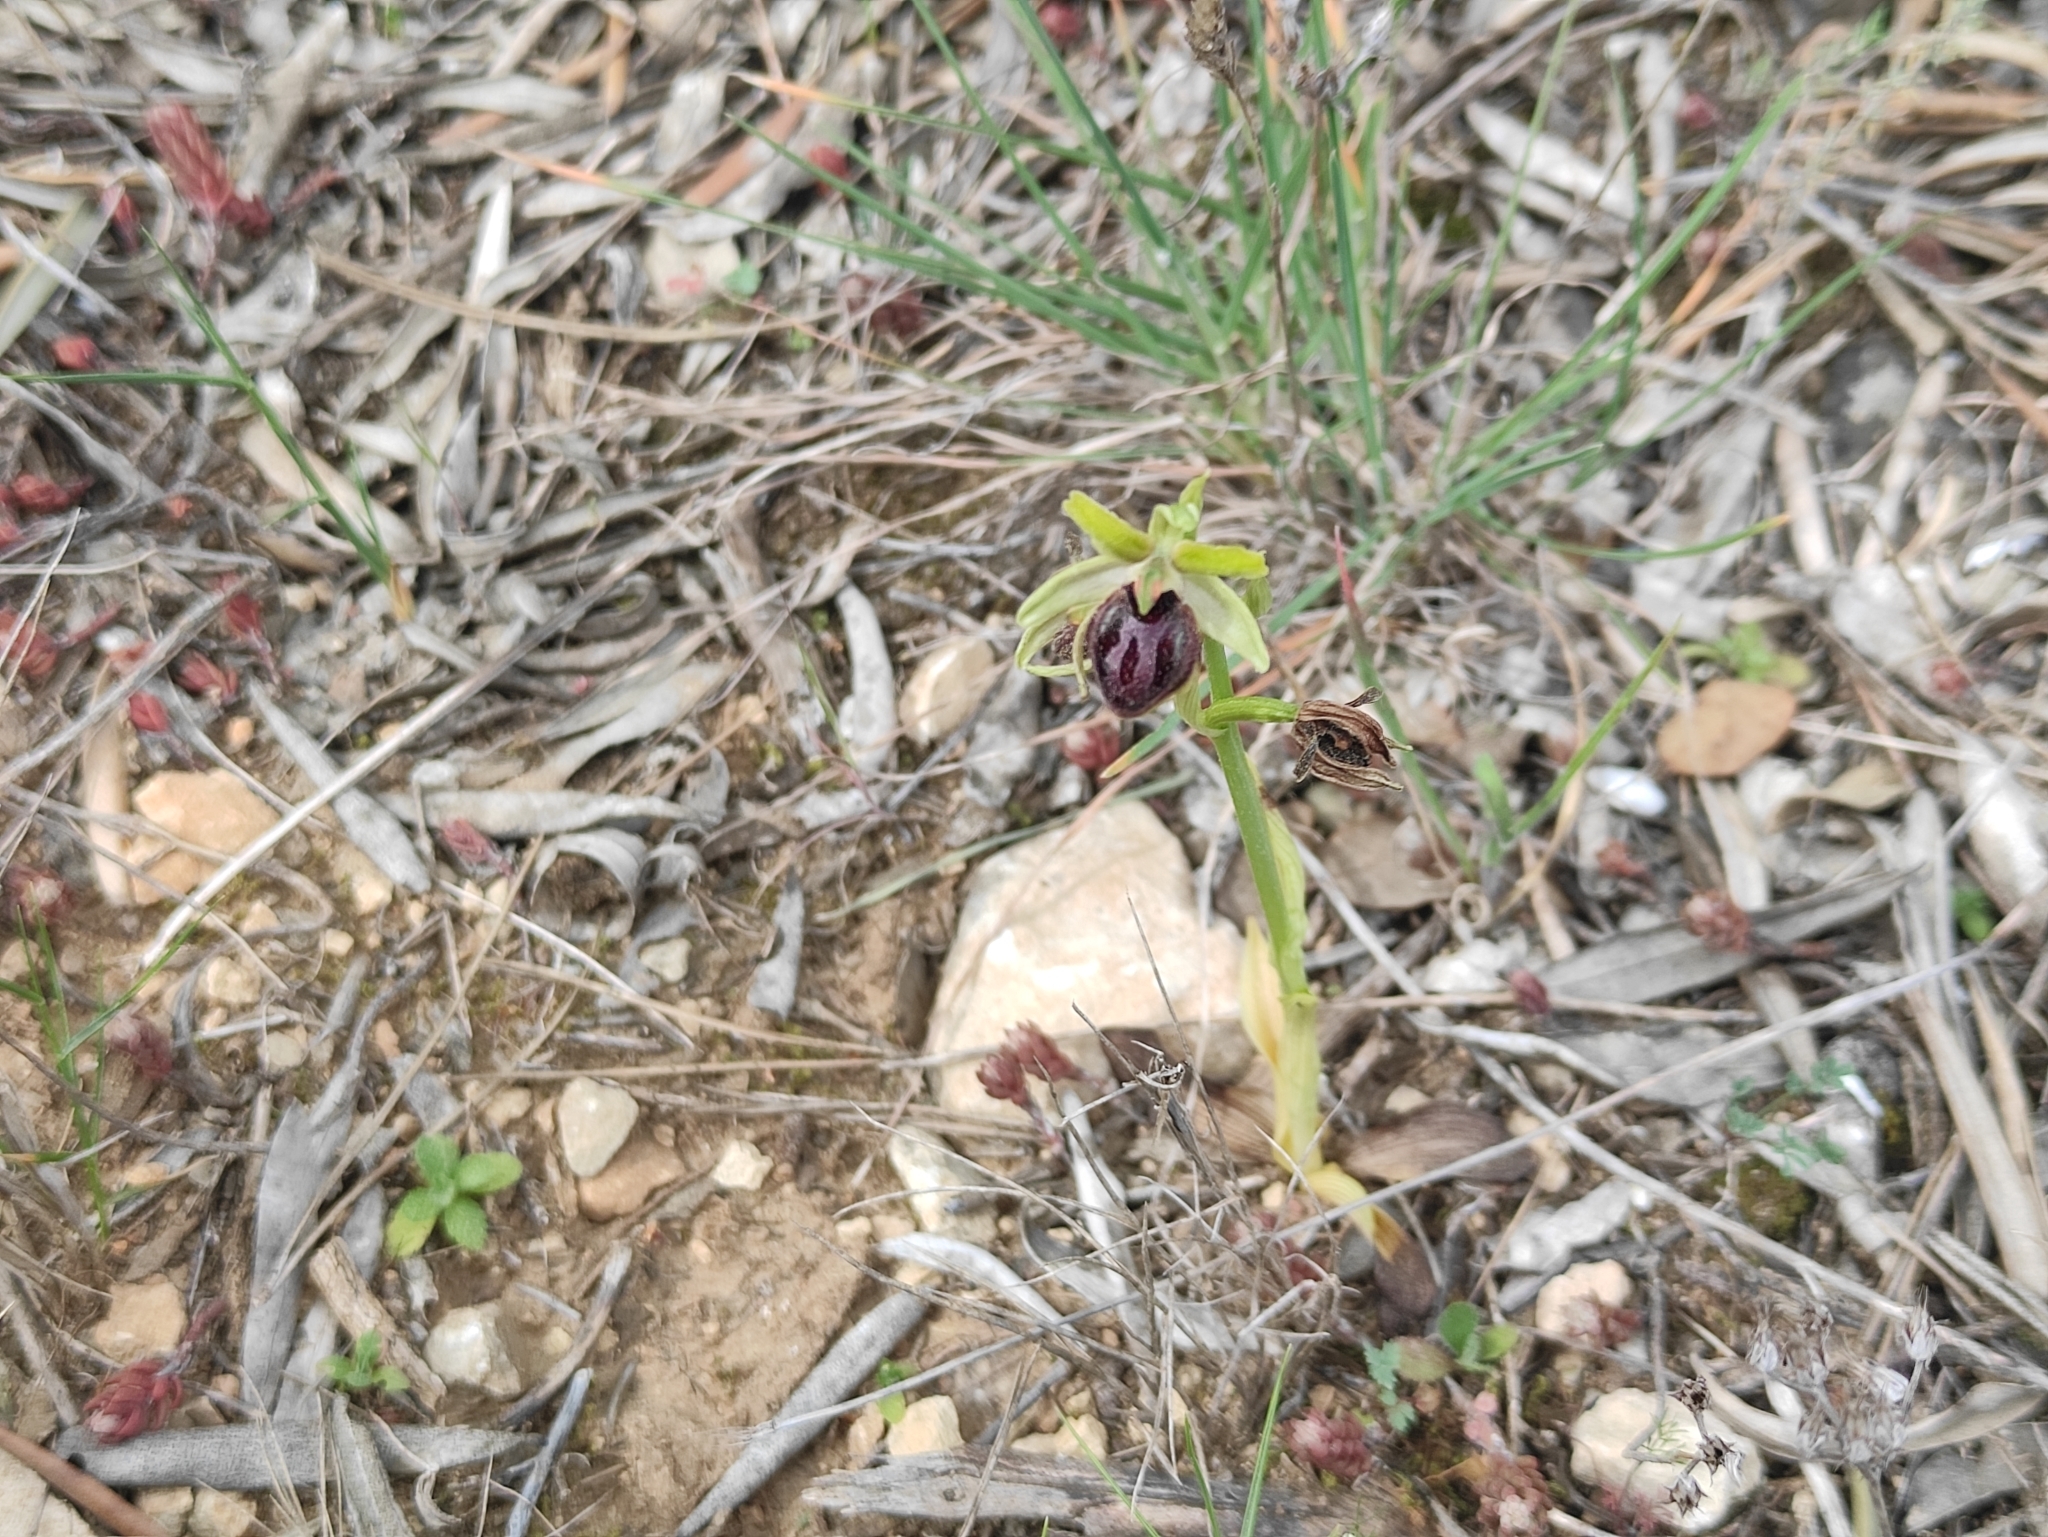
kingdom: Plantae
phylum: Tracheophyta
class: Liliopsida
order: Asparagales
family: Orchidaceae
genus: Ophrys
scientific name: Ophrys sphegodes
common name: Early spider-orchid
